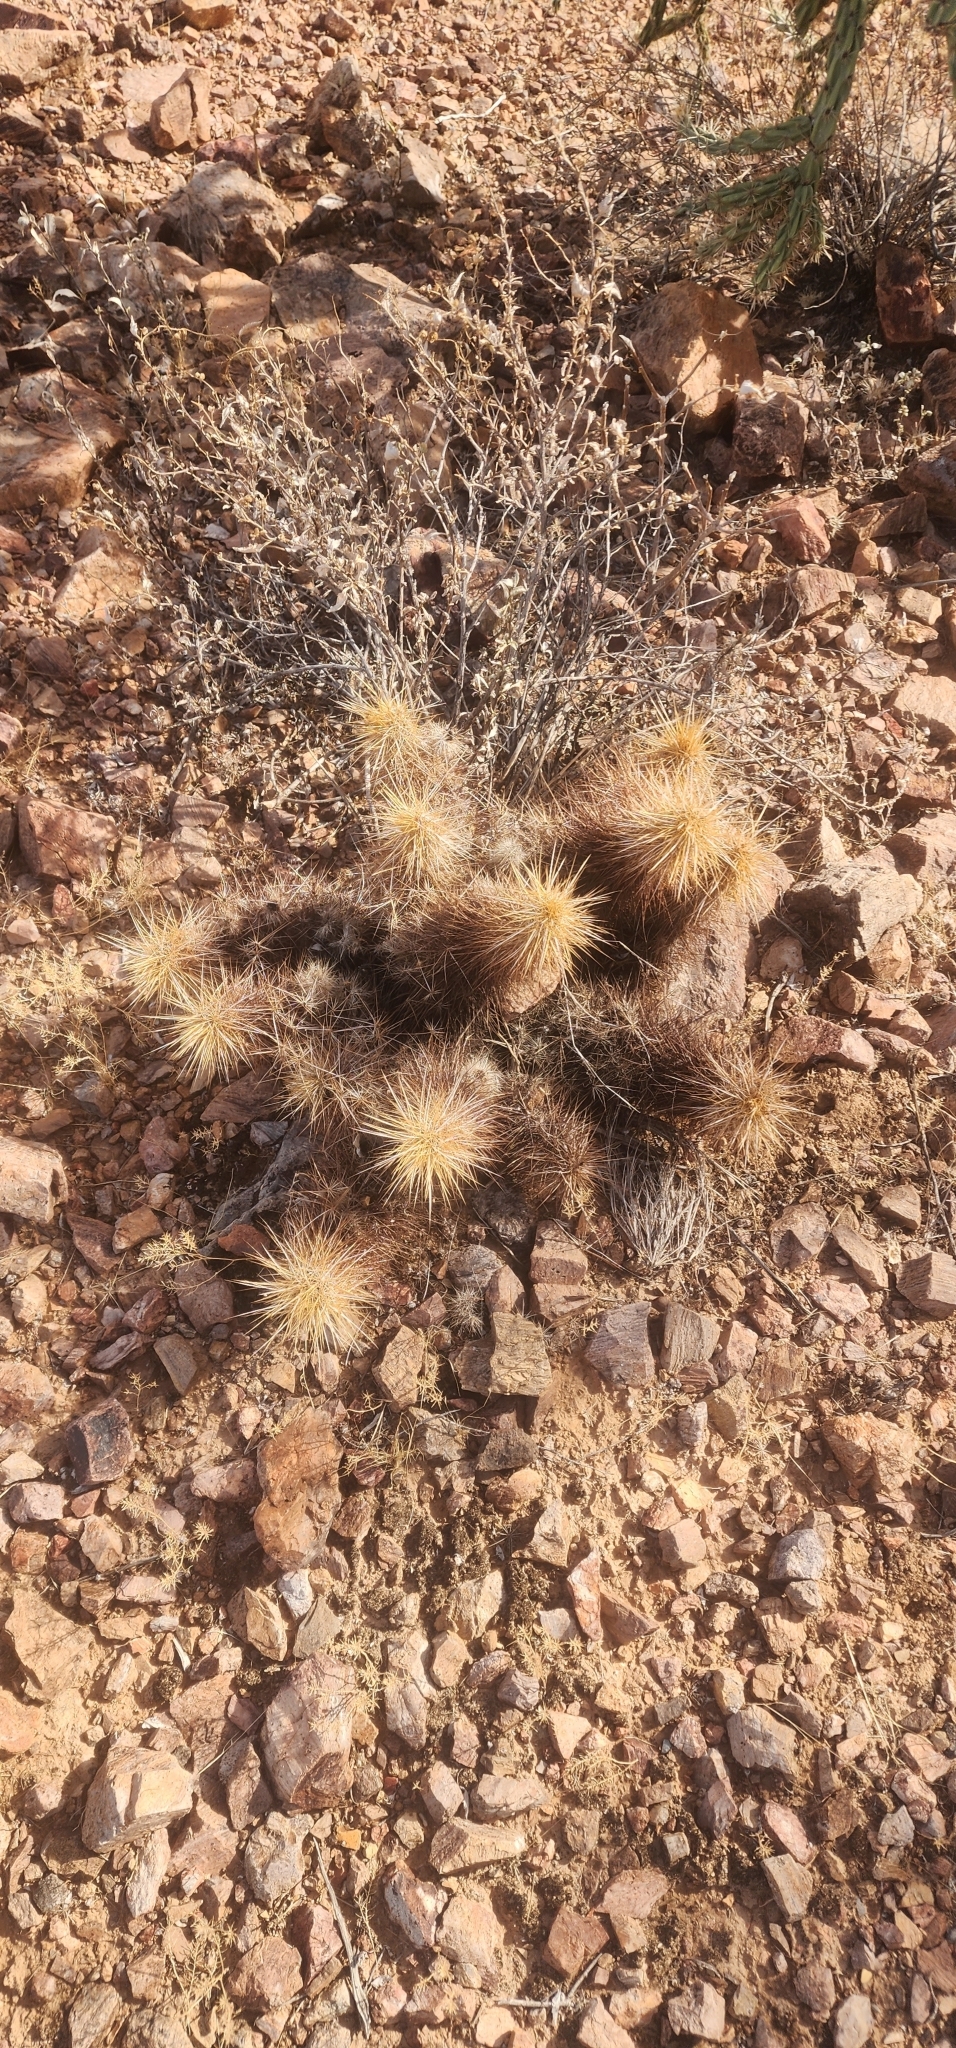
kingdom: Plantae
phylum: Tracheophyta
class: Magnoliopsida
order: Caryophyllales
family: Cactaceae
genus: Echinocereus
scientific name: Echinocereus engelmannii
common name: Engelmann's hedgehog cactus
